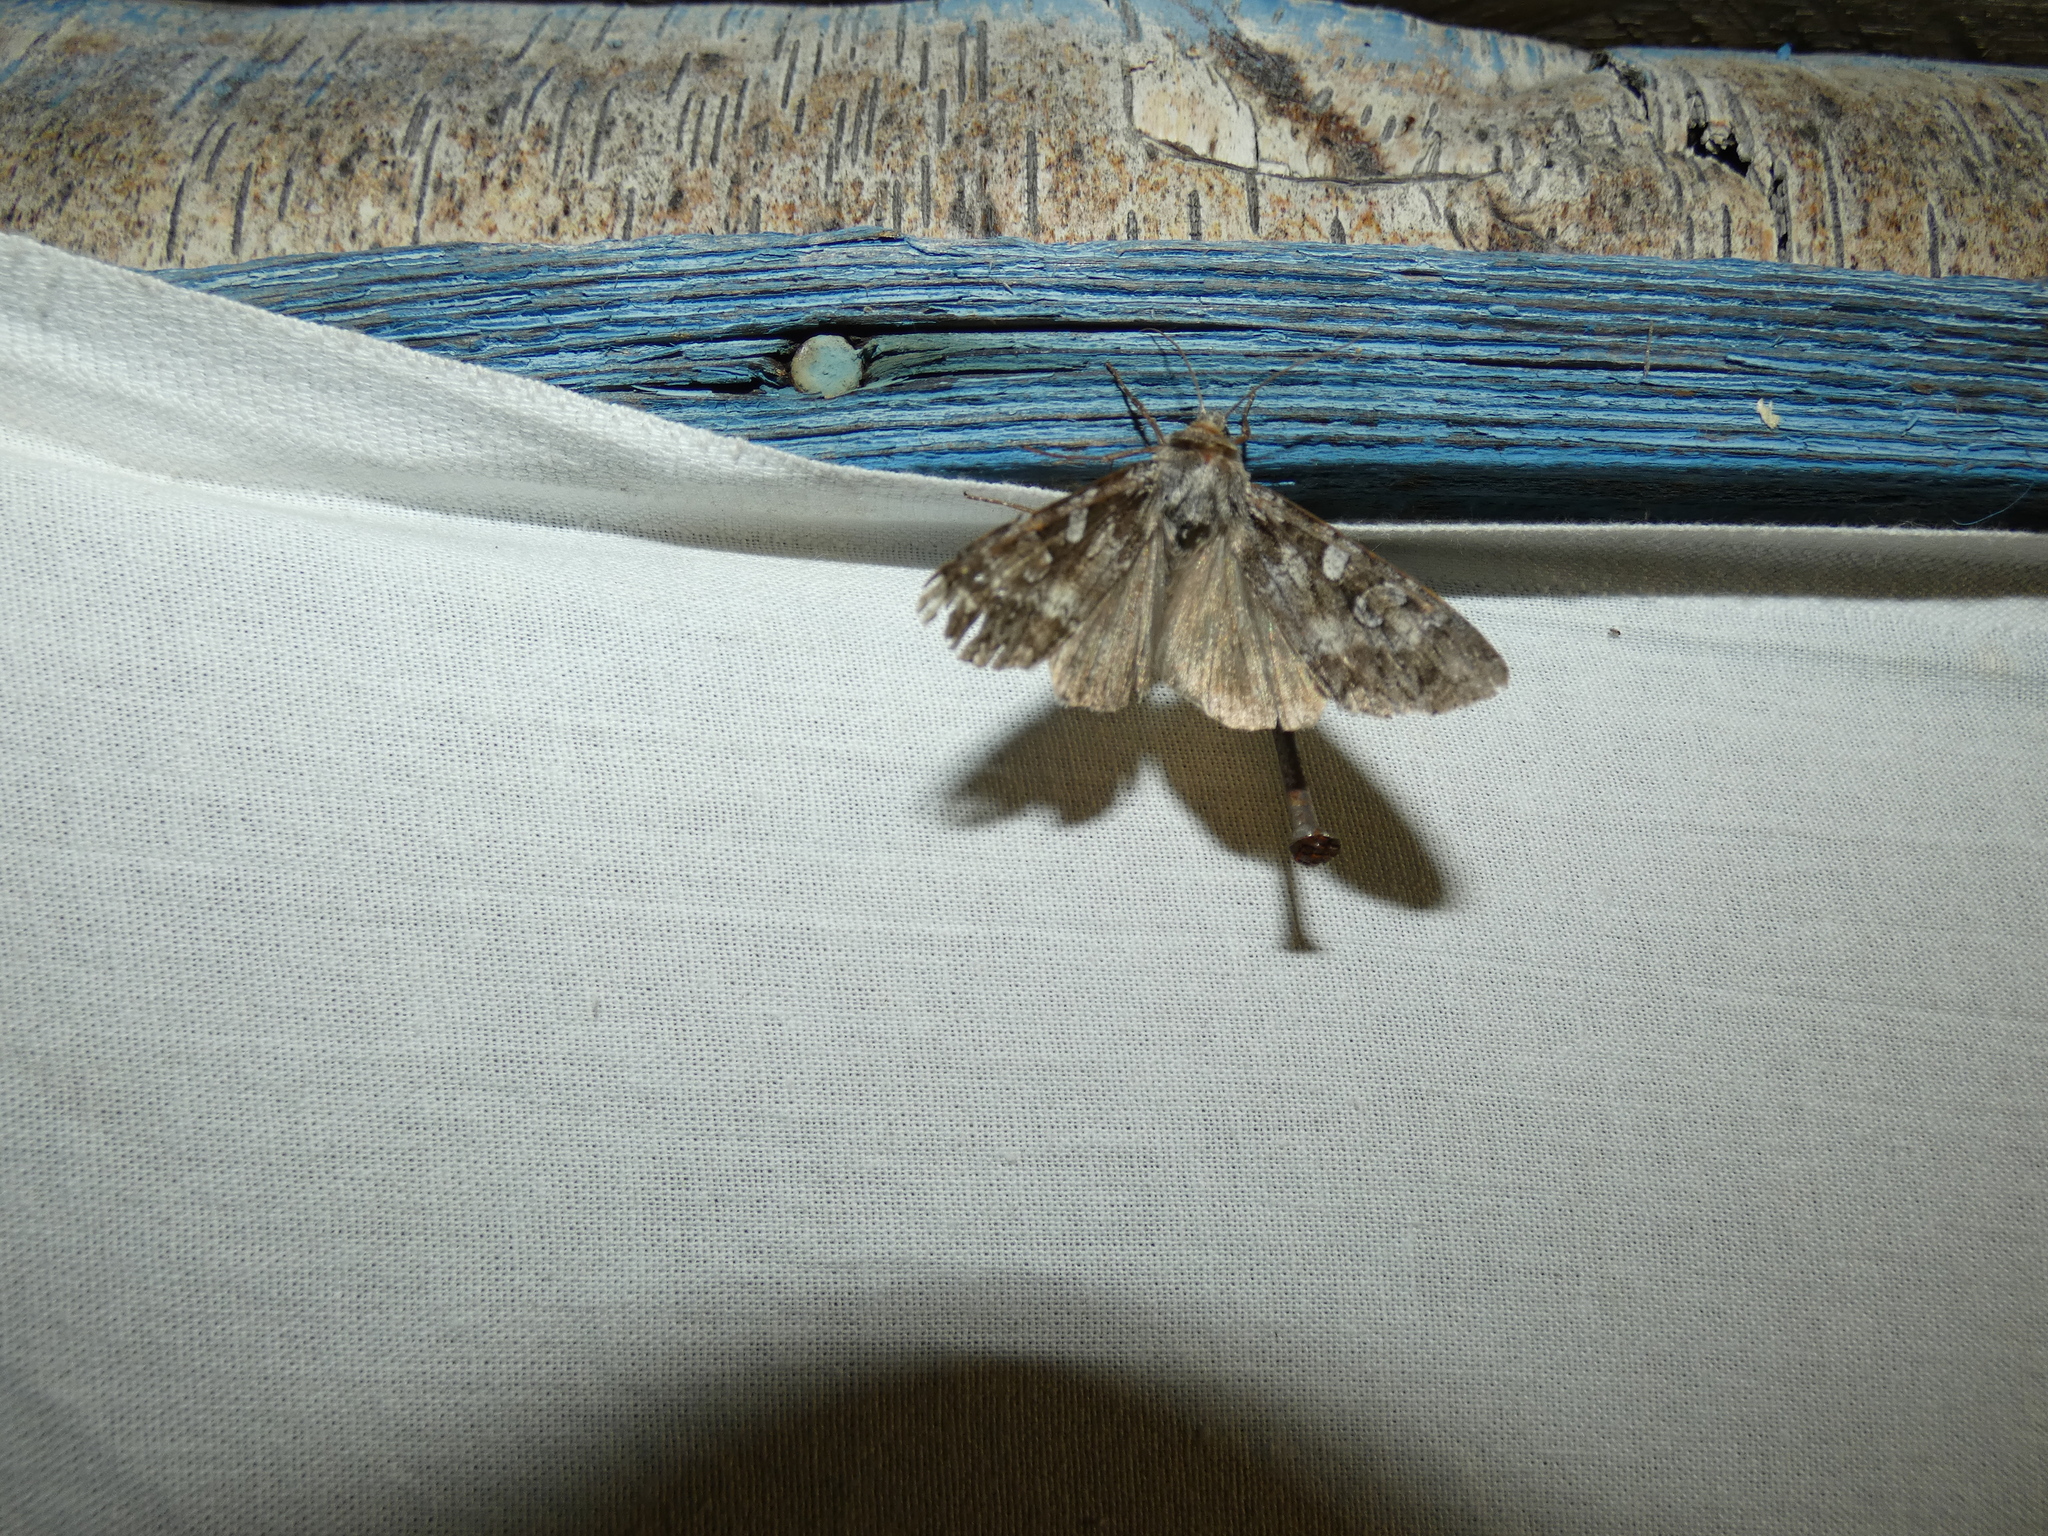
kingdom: Animalia
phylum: Arthropoda
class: Insecta
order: Lepidoptera
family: Noctuidae
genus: Eurois
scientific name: Eurois occulta
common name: Great brocade
